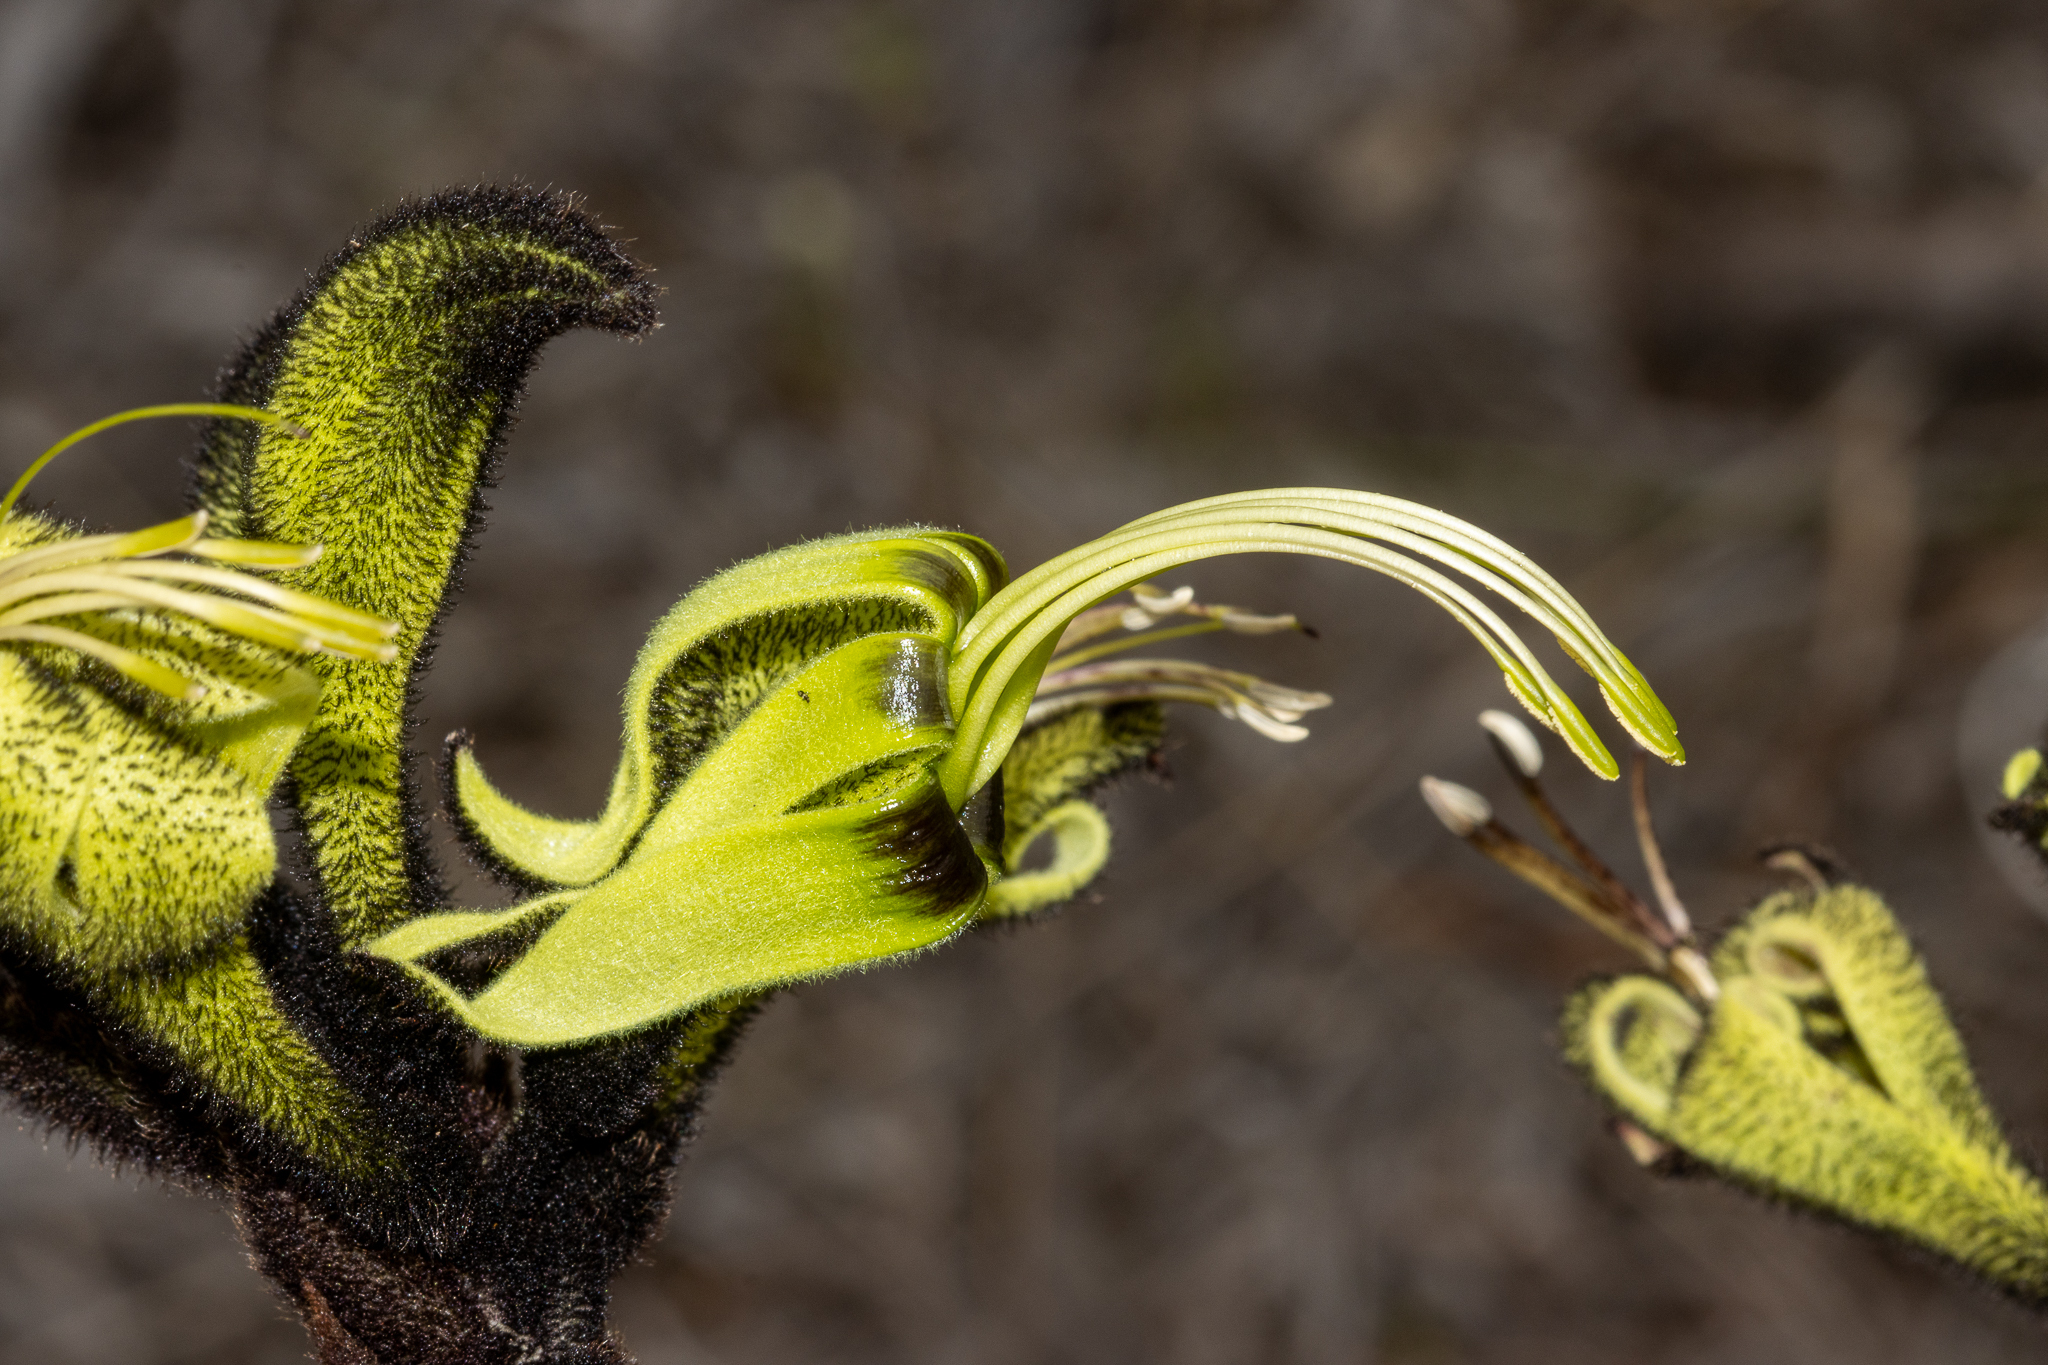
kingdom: Plantae
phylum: Tracheophyta
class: Liliopsida
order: Commelinales
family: Haemodoraceae
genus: Macropidia
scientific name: Macropidia fuliginosa
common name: Black kangaroo-paw
